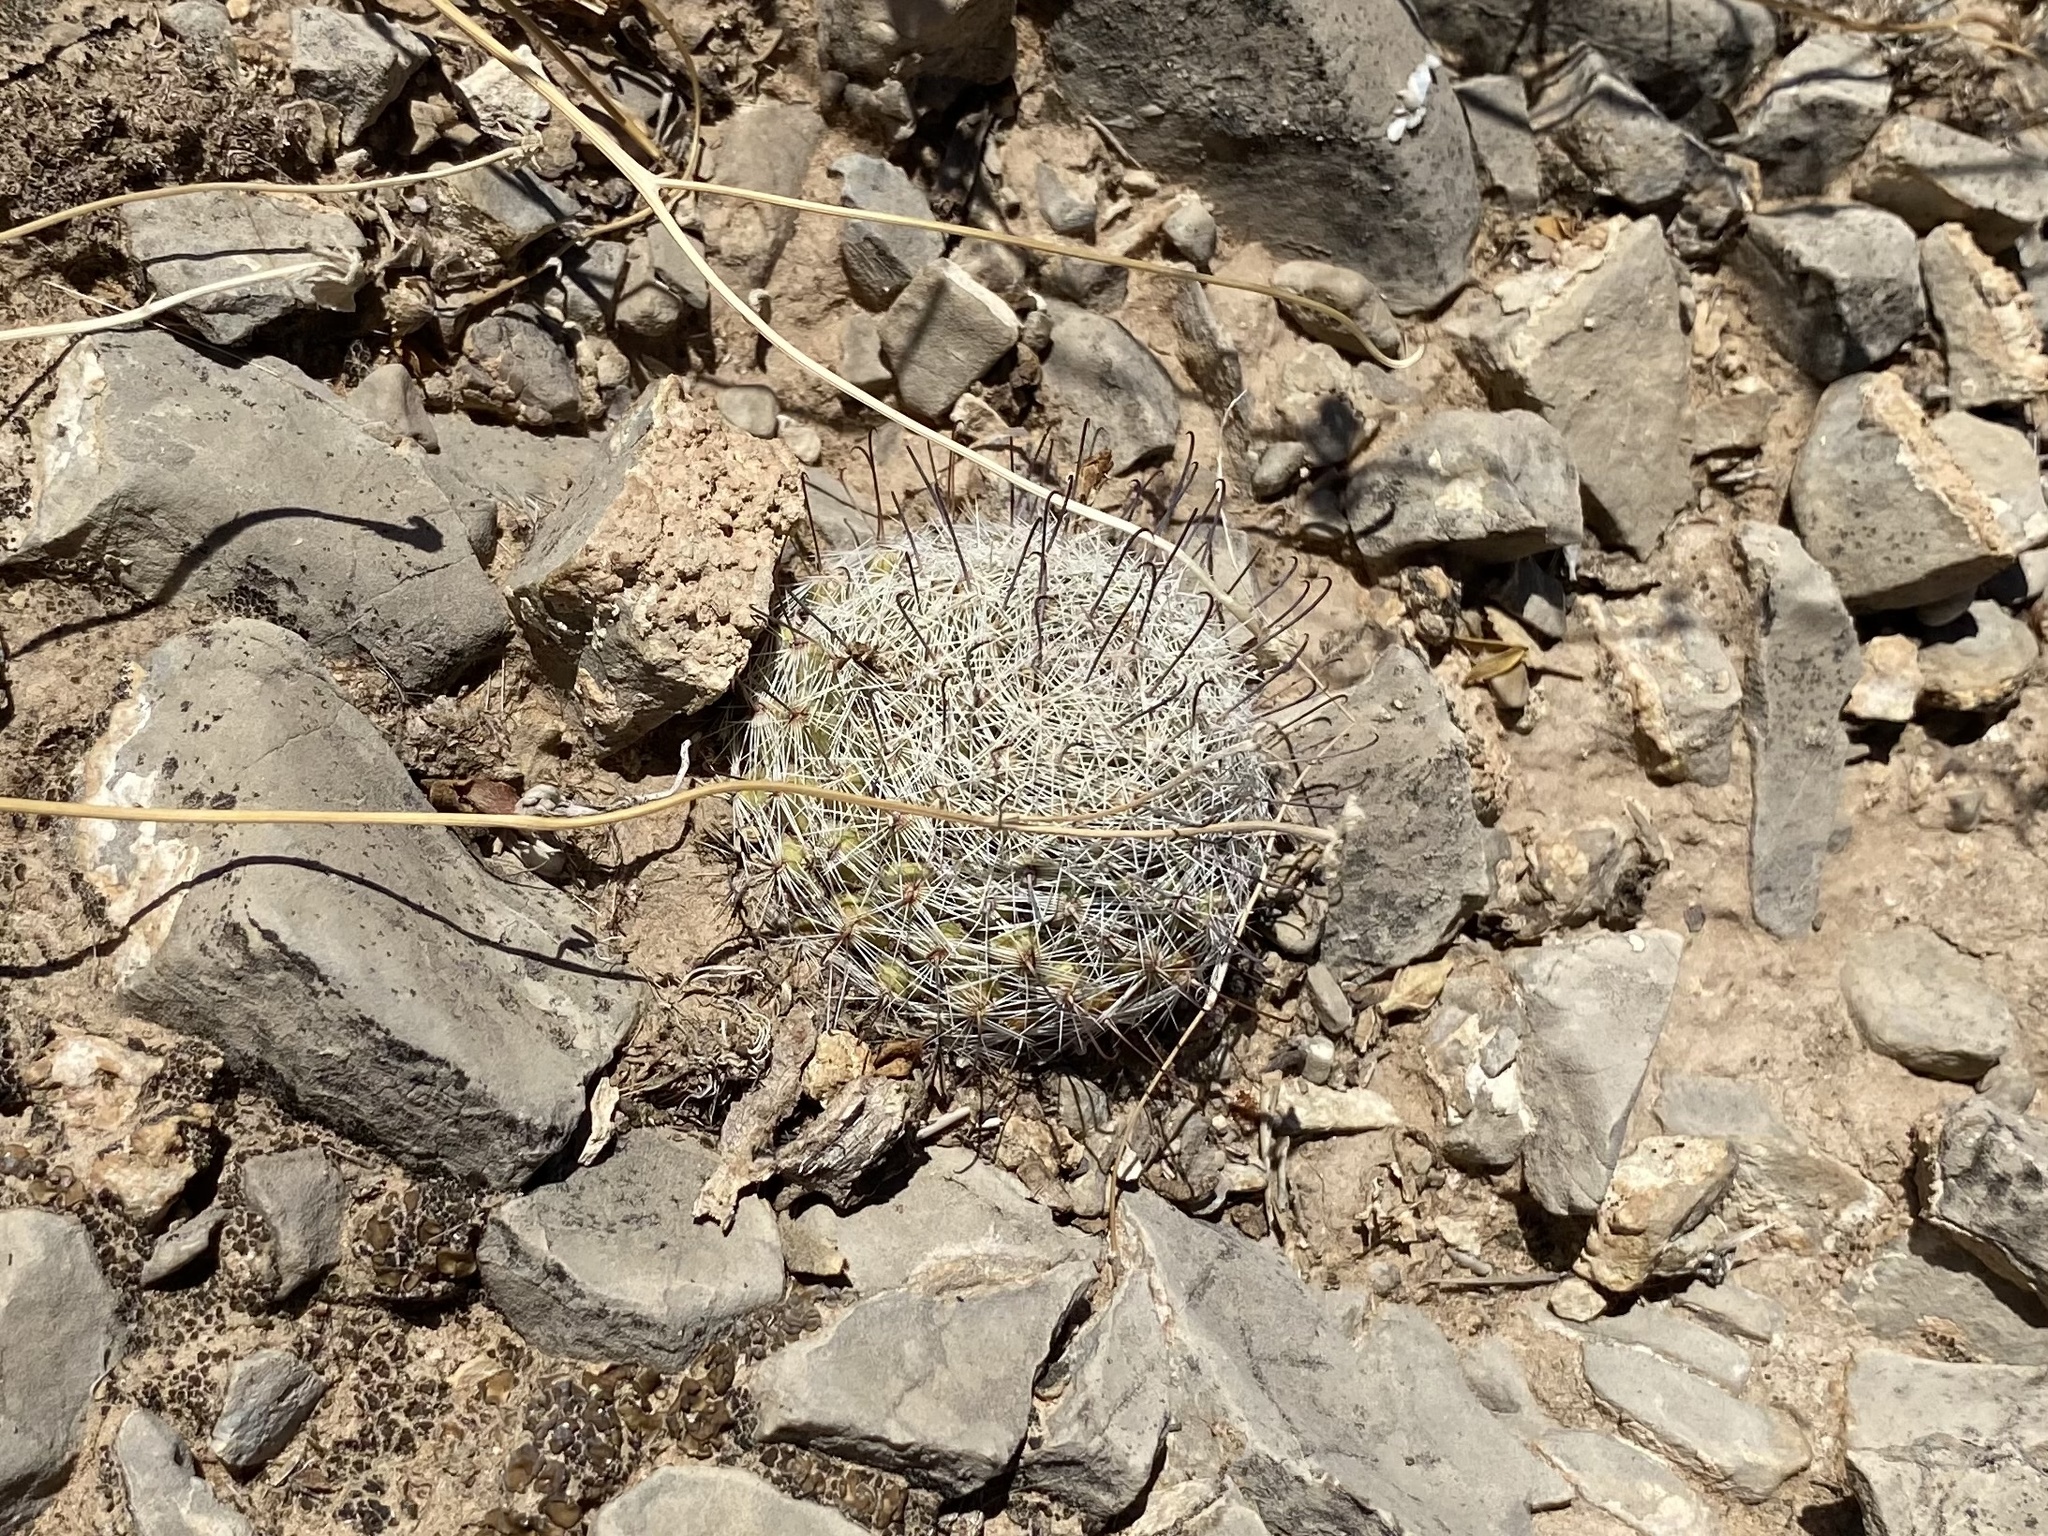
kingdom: Plantae
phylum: Tracheophyta
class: Magnoliopsida
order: Caryophyllales
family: Cactaceae
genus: Cochemiea
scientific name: Cochemiea grahamii
